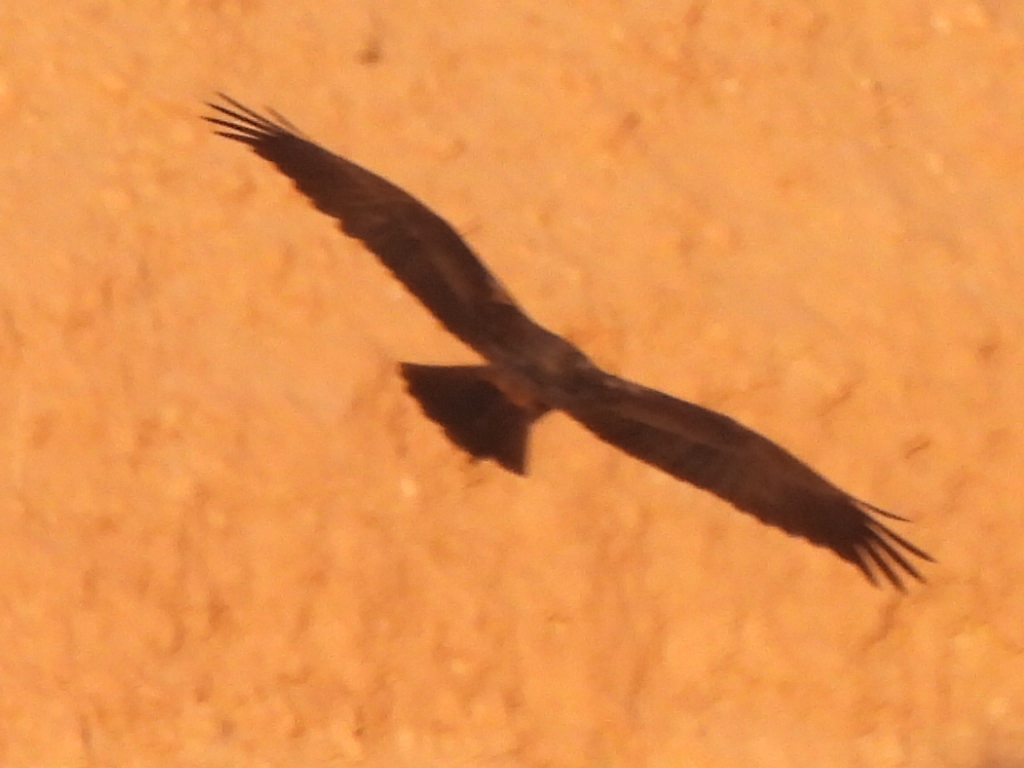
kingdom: Animalia
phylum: Chordata
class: Aves
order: Accipitriformes
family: Accipitridae
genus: Circus
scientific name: Circus aeruginosus
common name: Western marsh harrier
